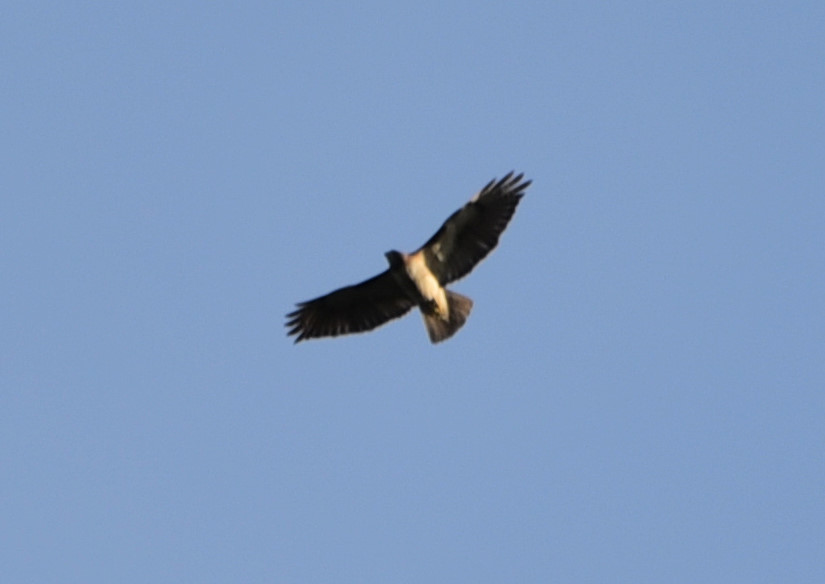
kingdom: Animalia
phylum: Chordata
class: Aves
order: Accipitriformes
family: Accipitridae
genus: Buteo
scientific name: Buteo jamaicensis
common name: Red-tailed hawk
